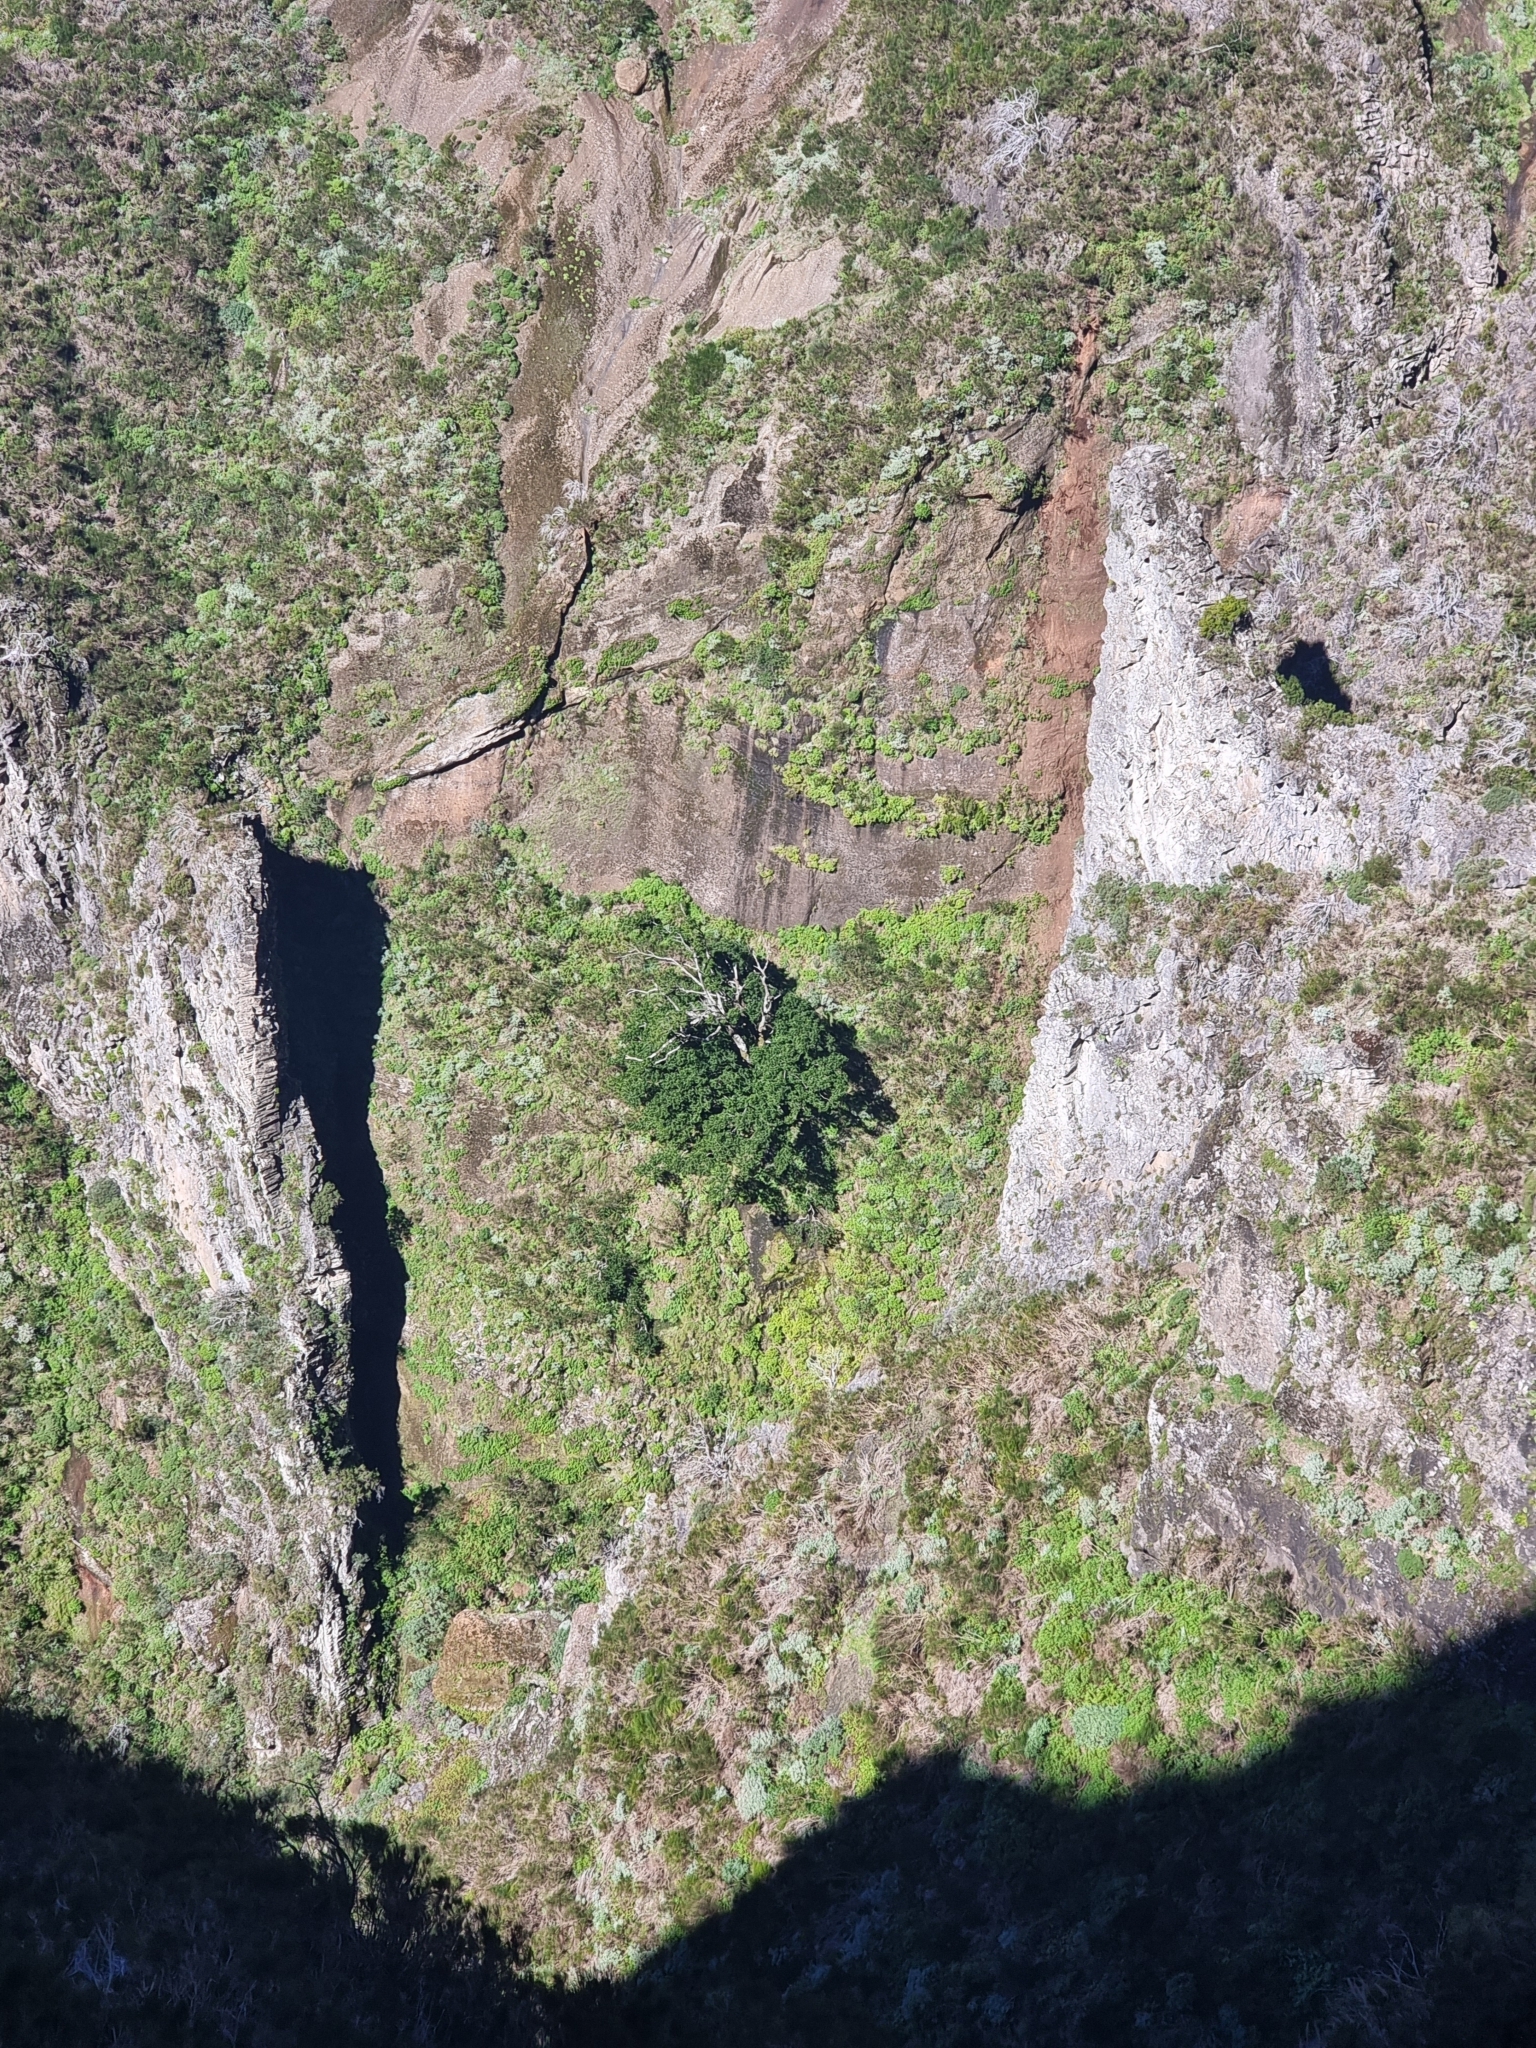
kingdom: Plantae
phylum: Tracheophyta
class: Magnoliopsida
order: Laurales
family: Lauraceae
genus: Mespilodaphne
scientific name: Mespilodaphne foetens
